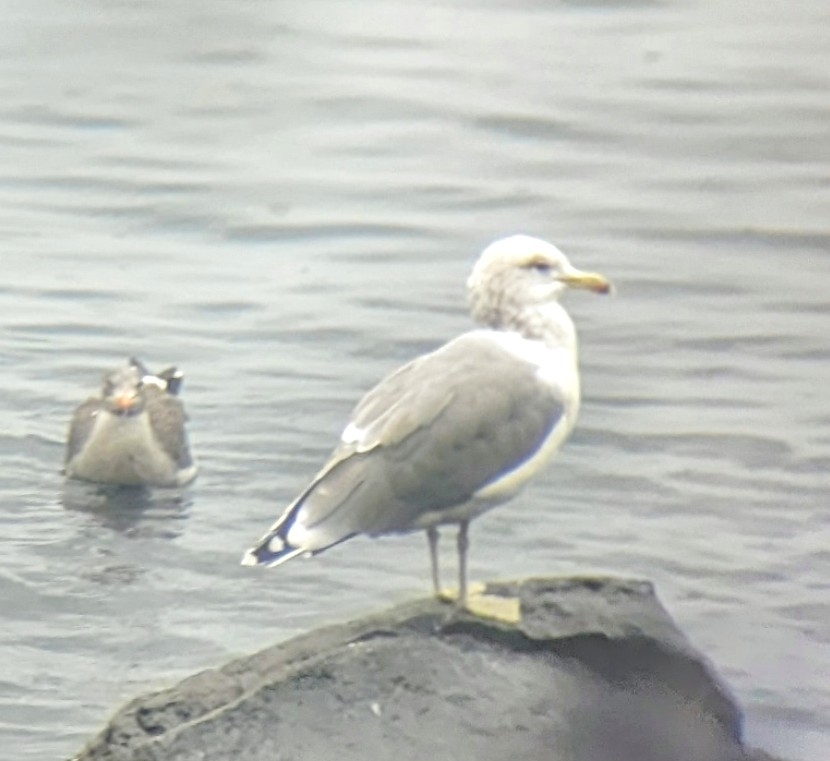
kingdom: Animalia
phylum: Chordata
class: Aves
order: Charadriiformes
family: Laridae
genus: Larus
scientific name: Larus californicus
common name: California gull
